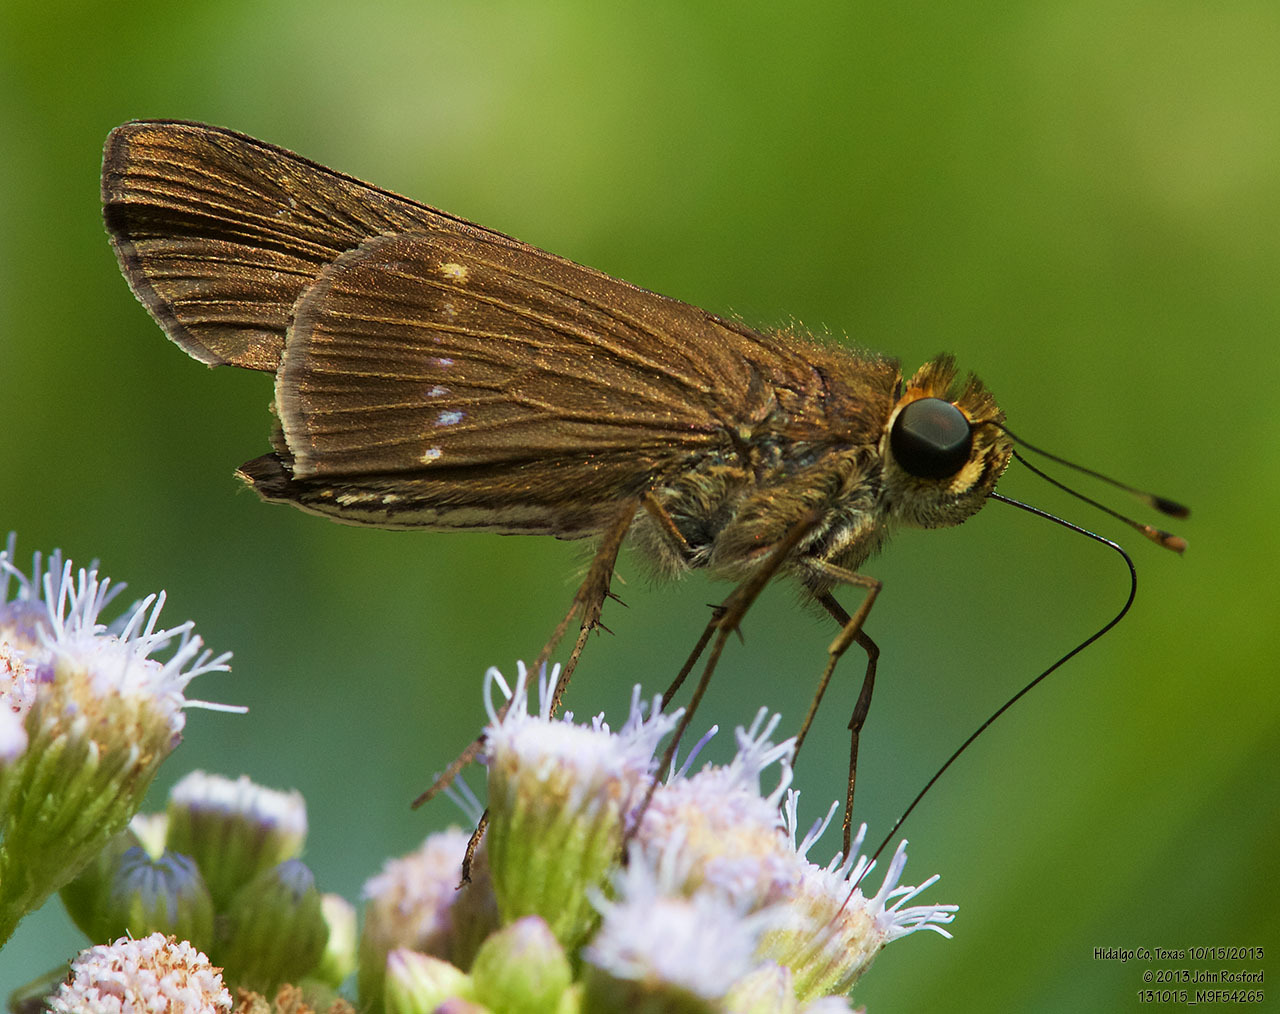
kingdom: Animalia
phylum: Arthropoda
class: Insecta
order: Lepidoptera
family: Hesperiidae
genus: Panoquina
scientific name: Panoquina ocola
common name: Ocola skipper
